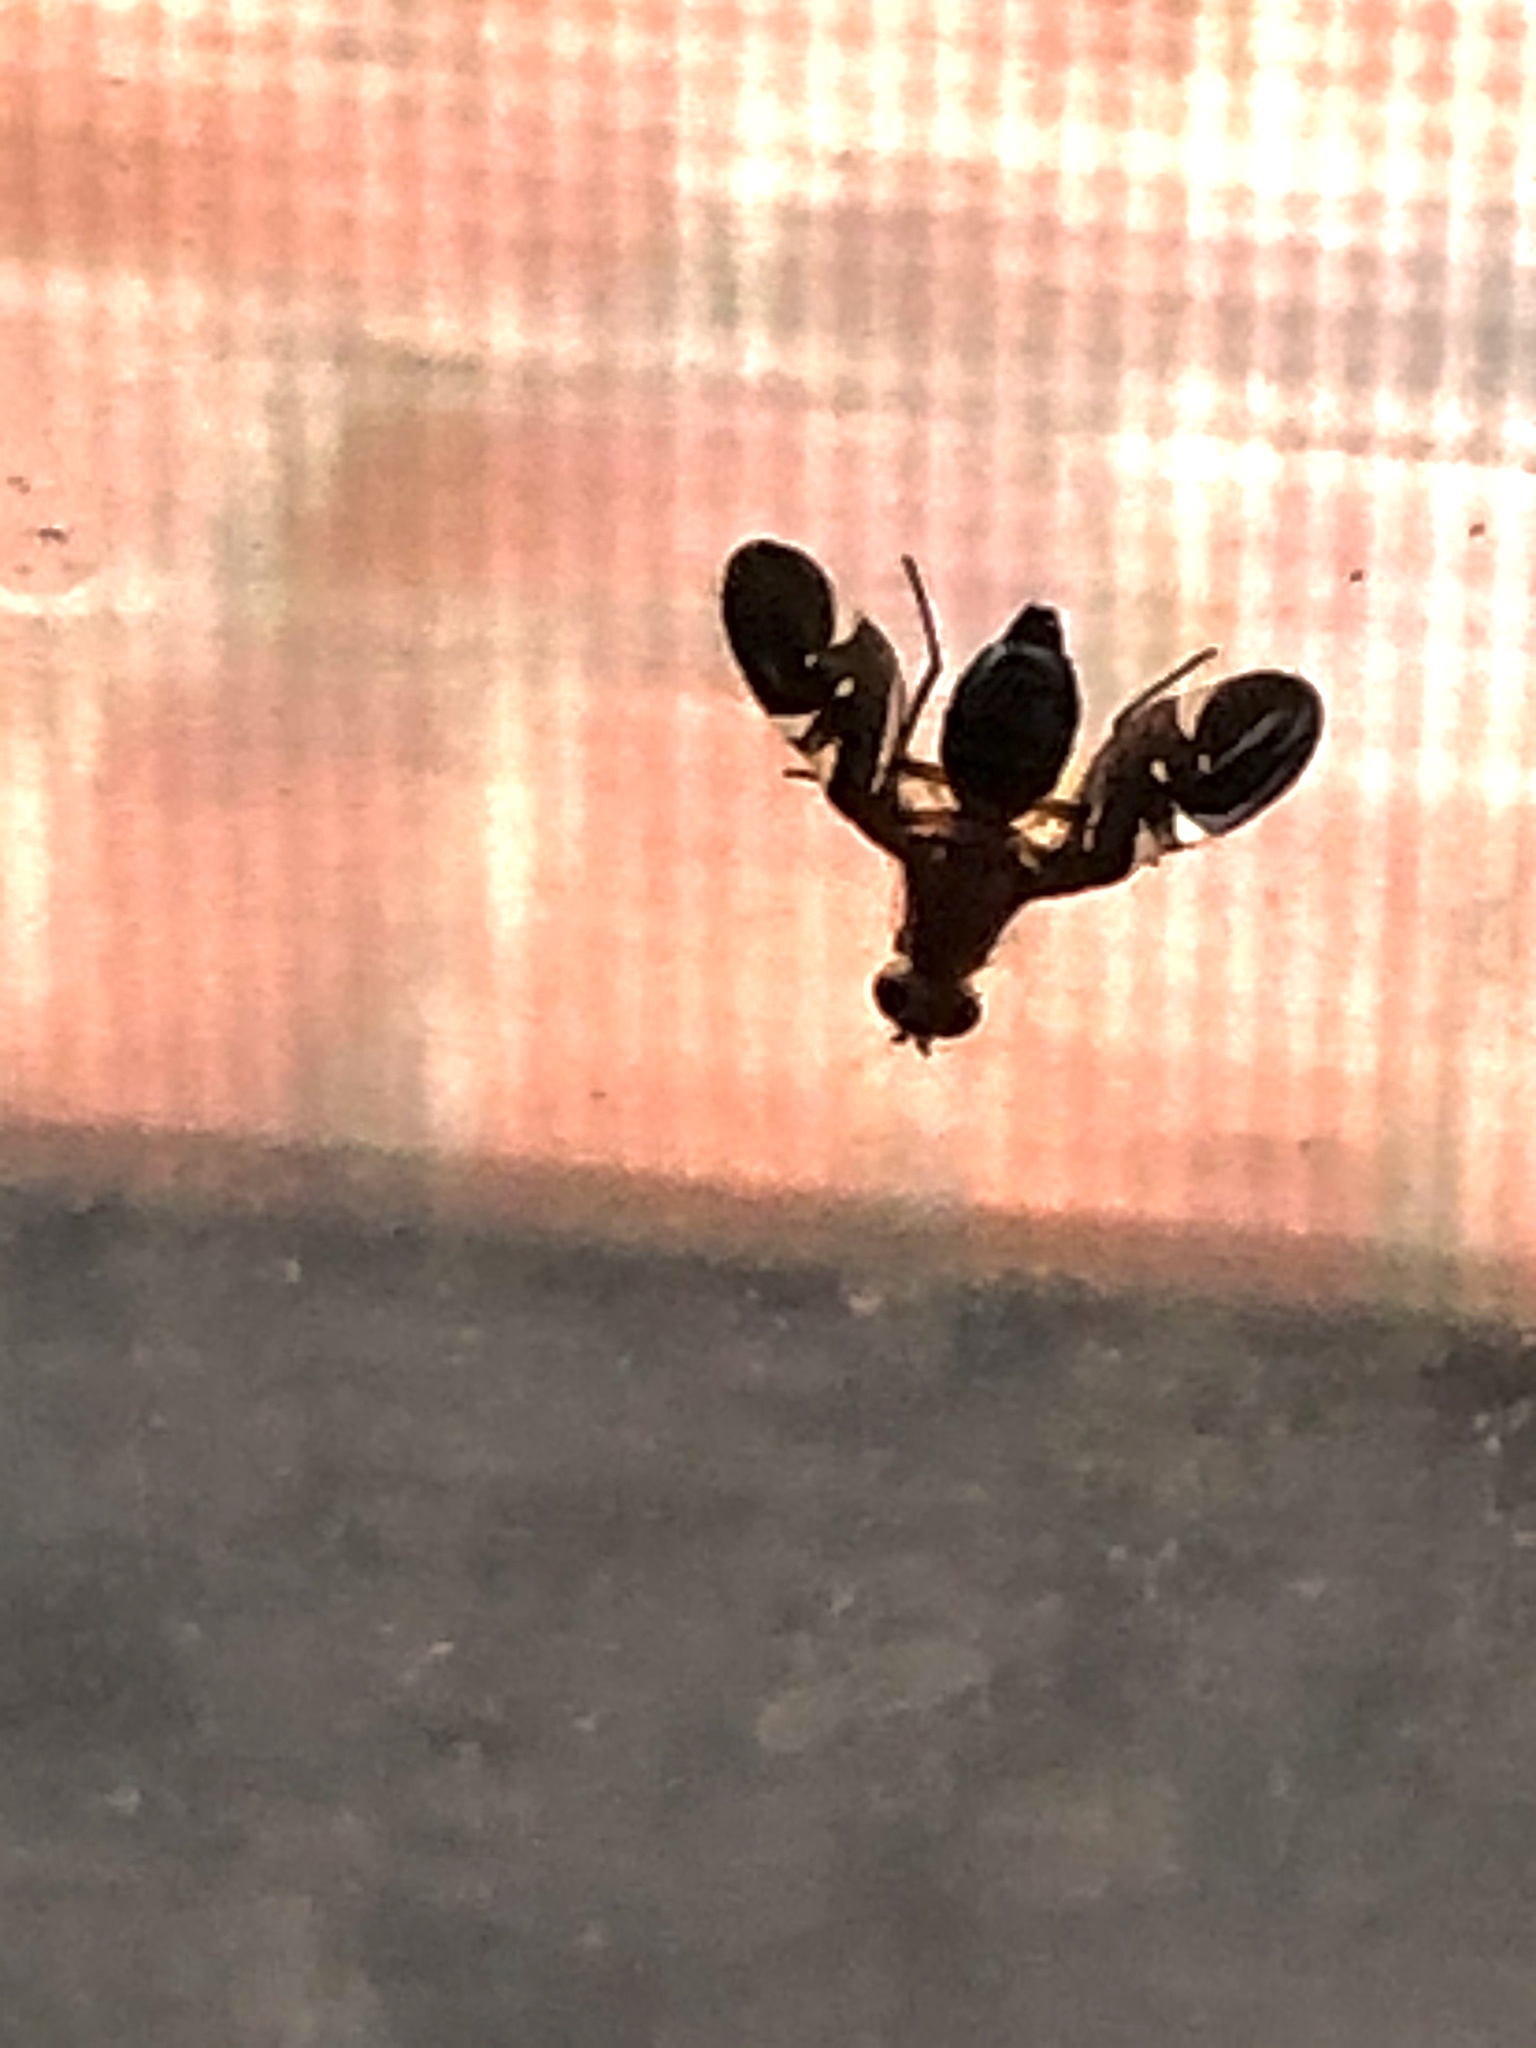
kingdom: Animalia
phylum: Arthropoda
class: Insecta
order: Diptera
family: Ulidiidae
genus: Delphinia
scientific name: Delphinia picta
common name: Common picture-winged fly
